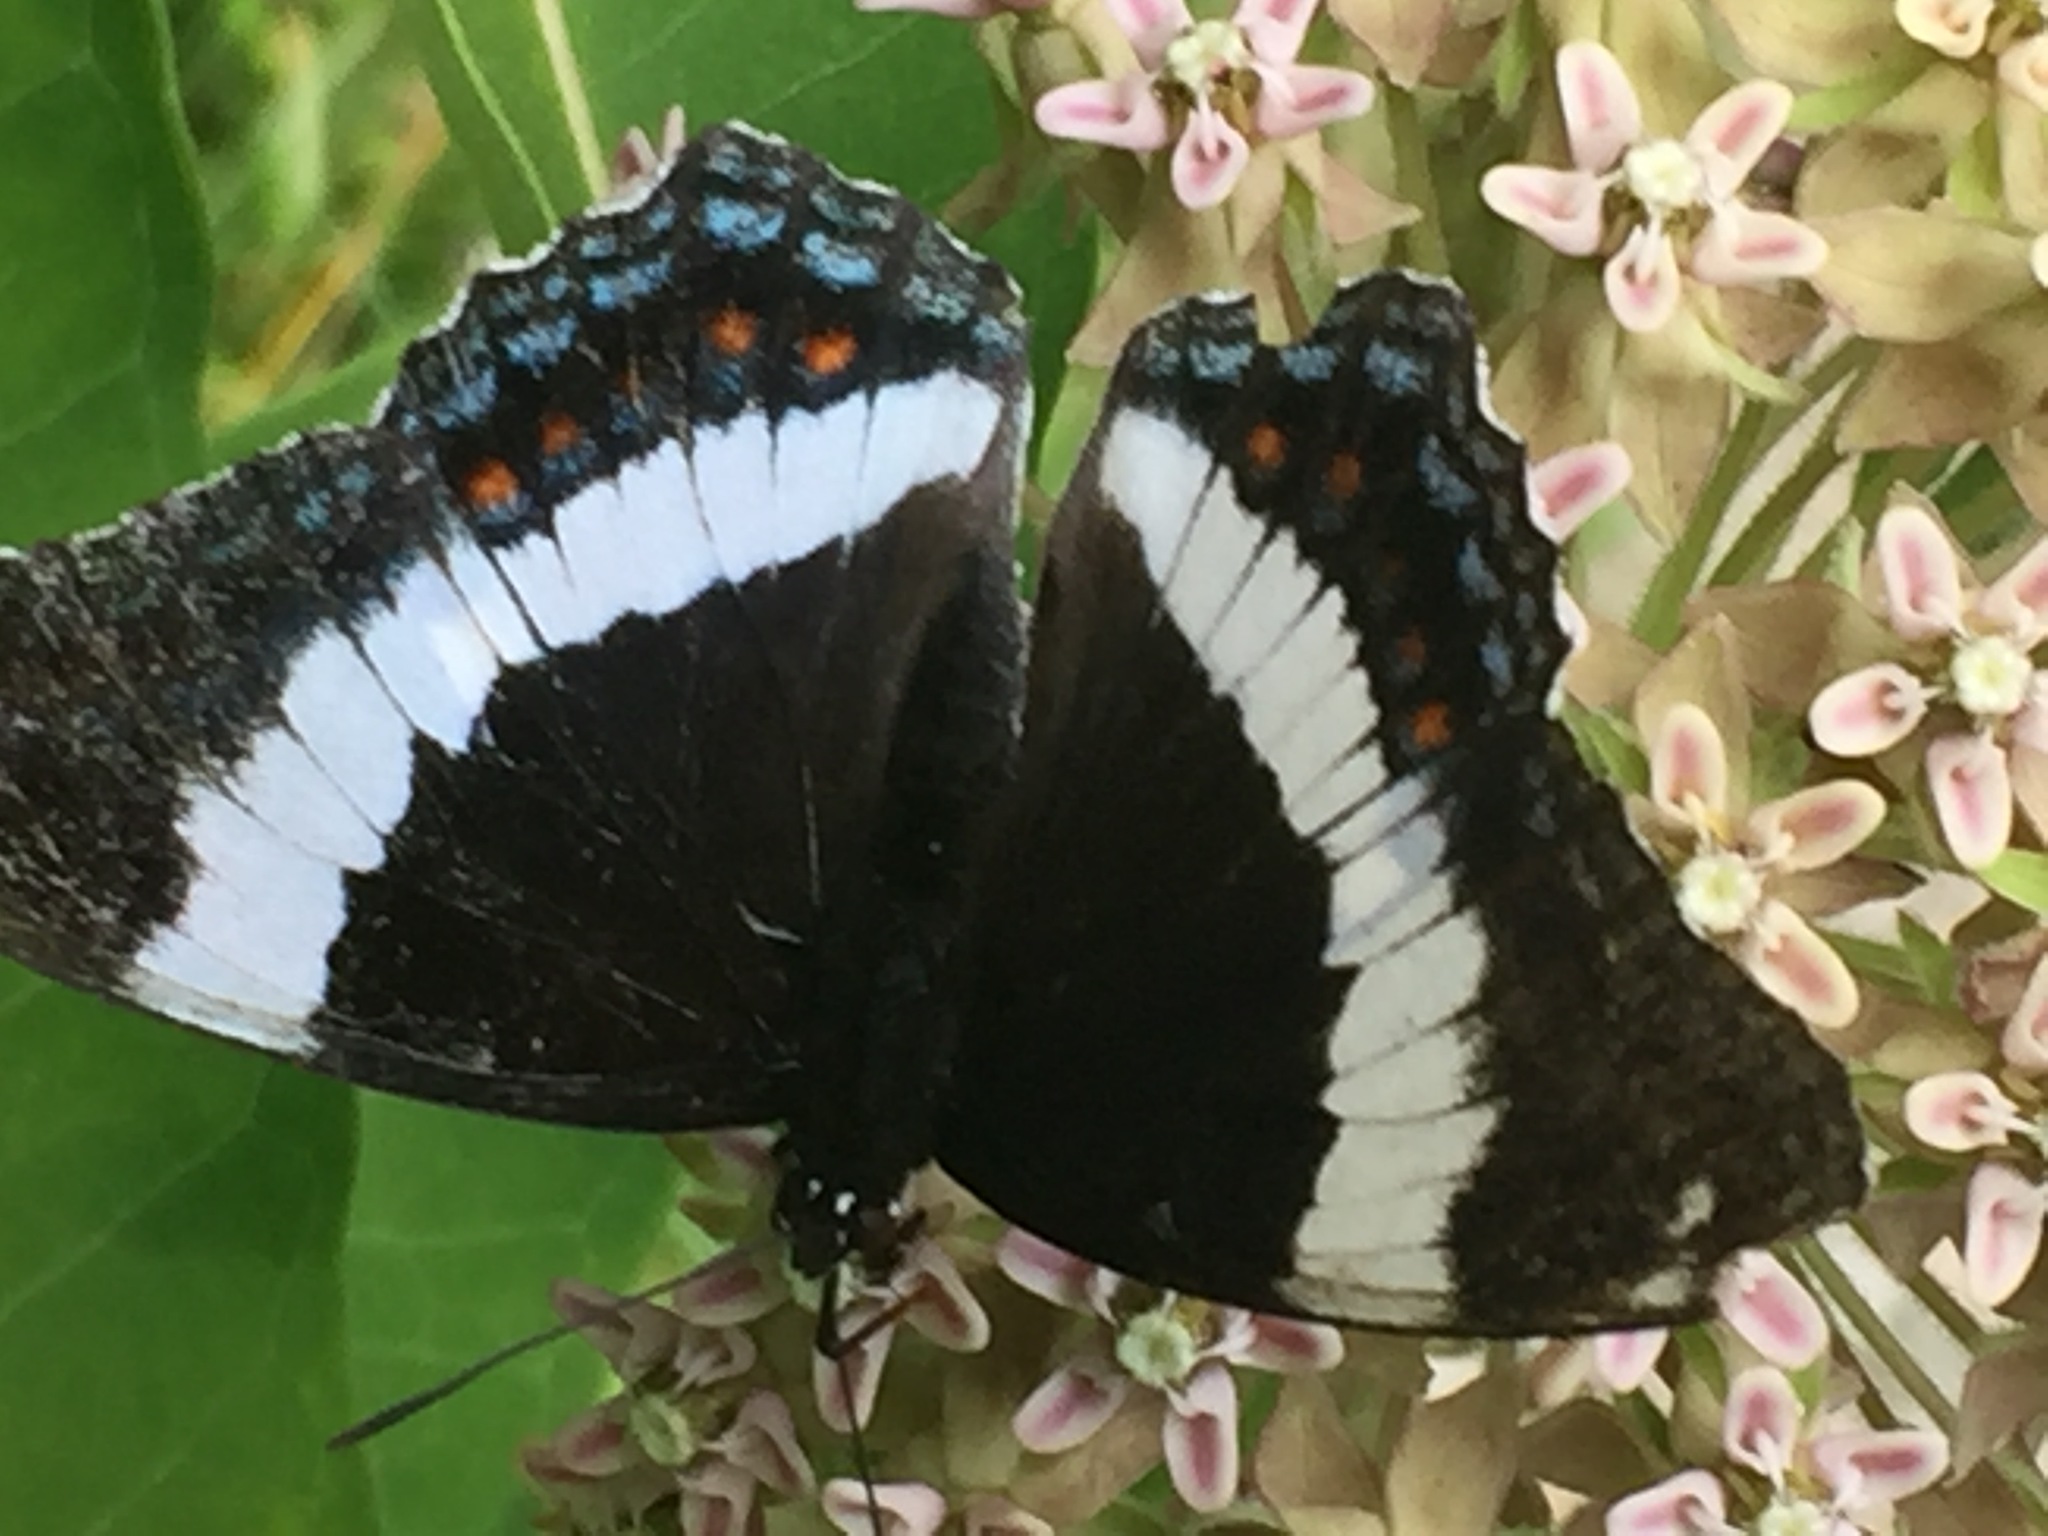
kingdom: Animalia
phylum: Arthropoda
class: Insecta
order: Lepidoptera
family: Nymphalidae
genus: Limenitis
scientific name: Limenitis arthemis
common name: Red-spotted admiral
